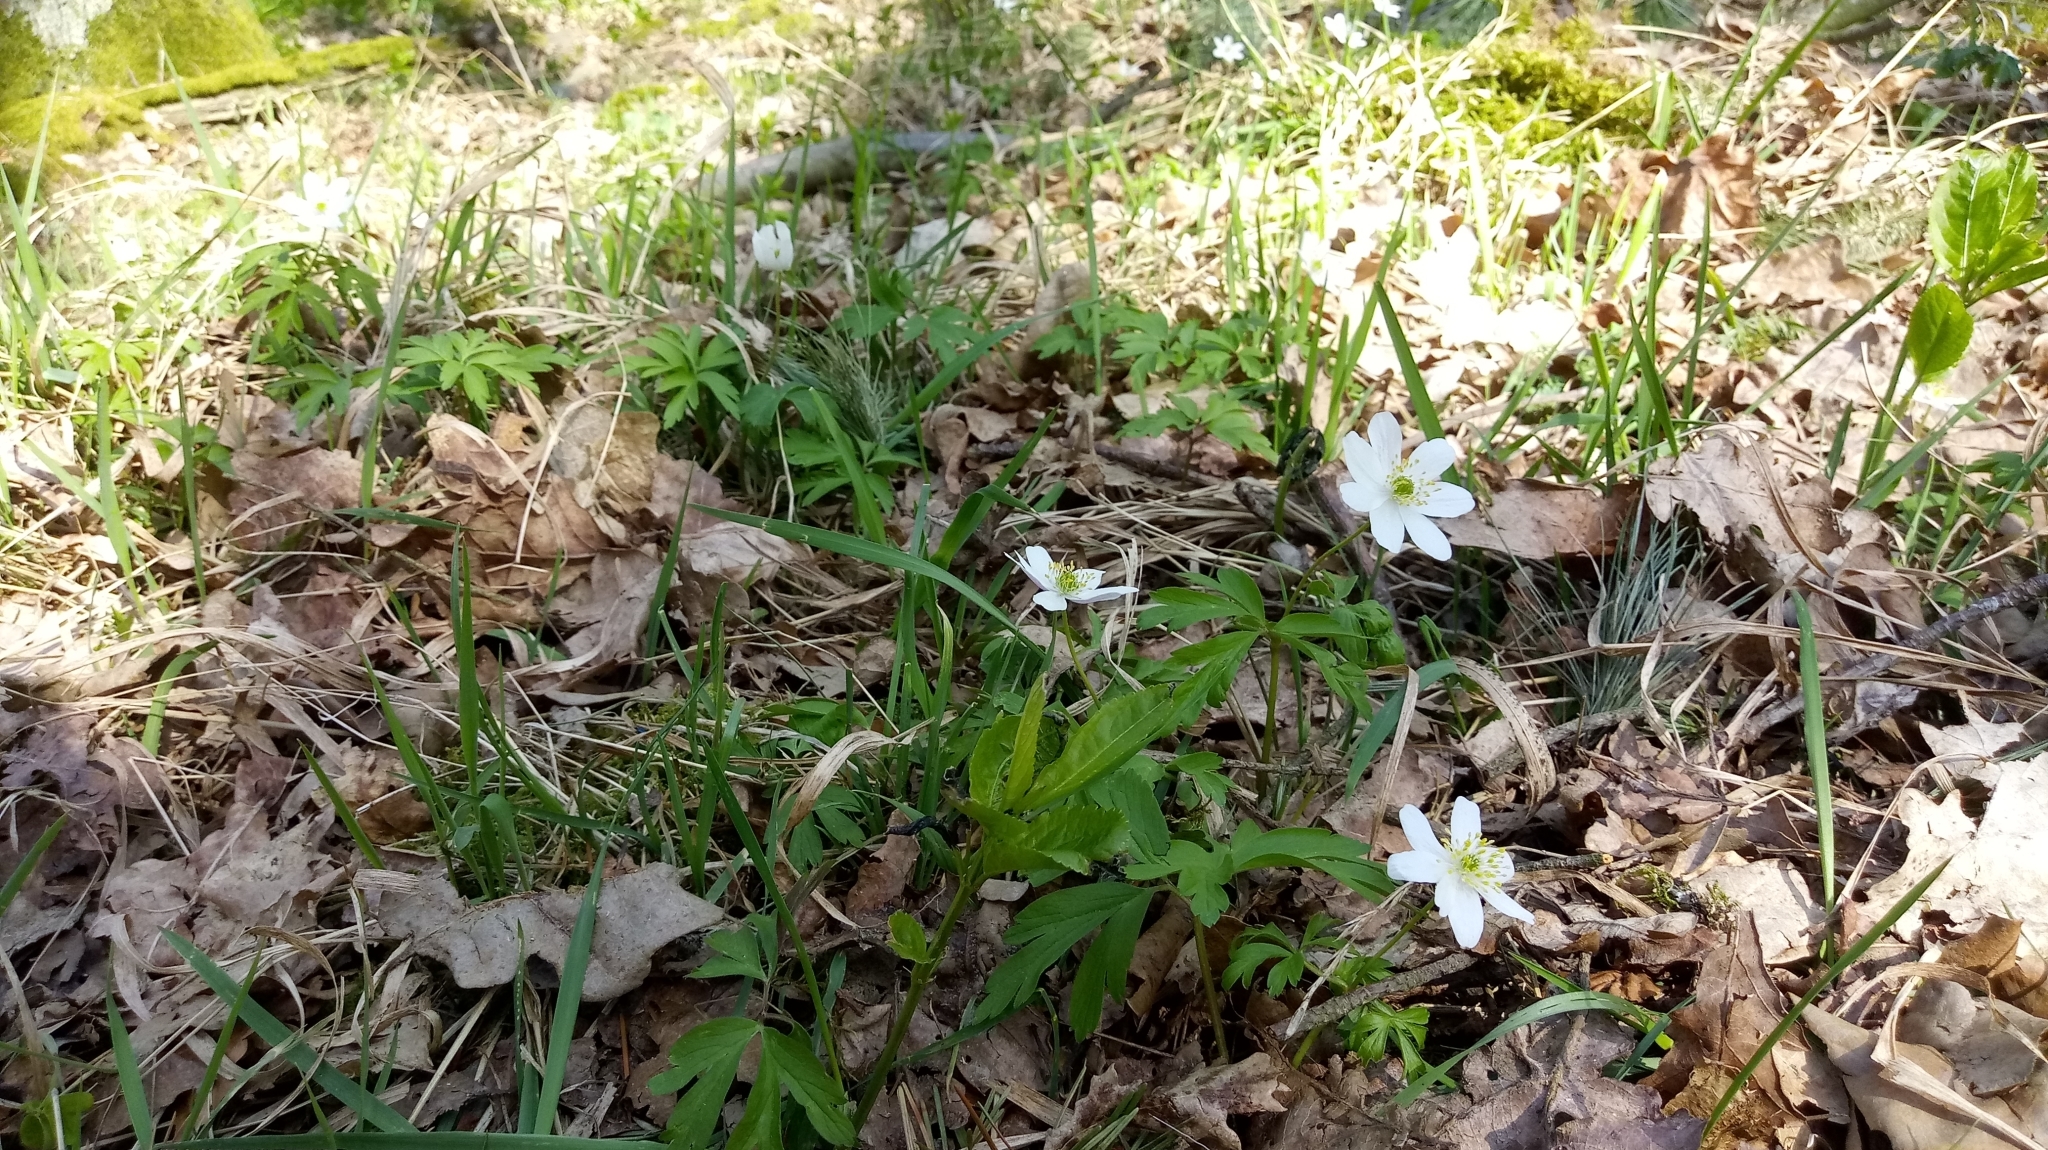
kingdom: Plantae
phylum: Tracheophyta
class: Magnoliopsida
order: Ranunculales
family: Ranunculaceae
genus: Anemone
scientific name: Anemone nemorosa
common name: Wood anemone
